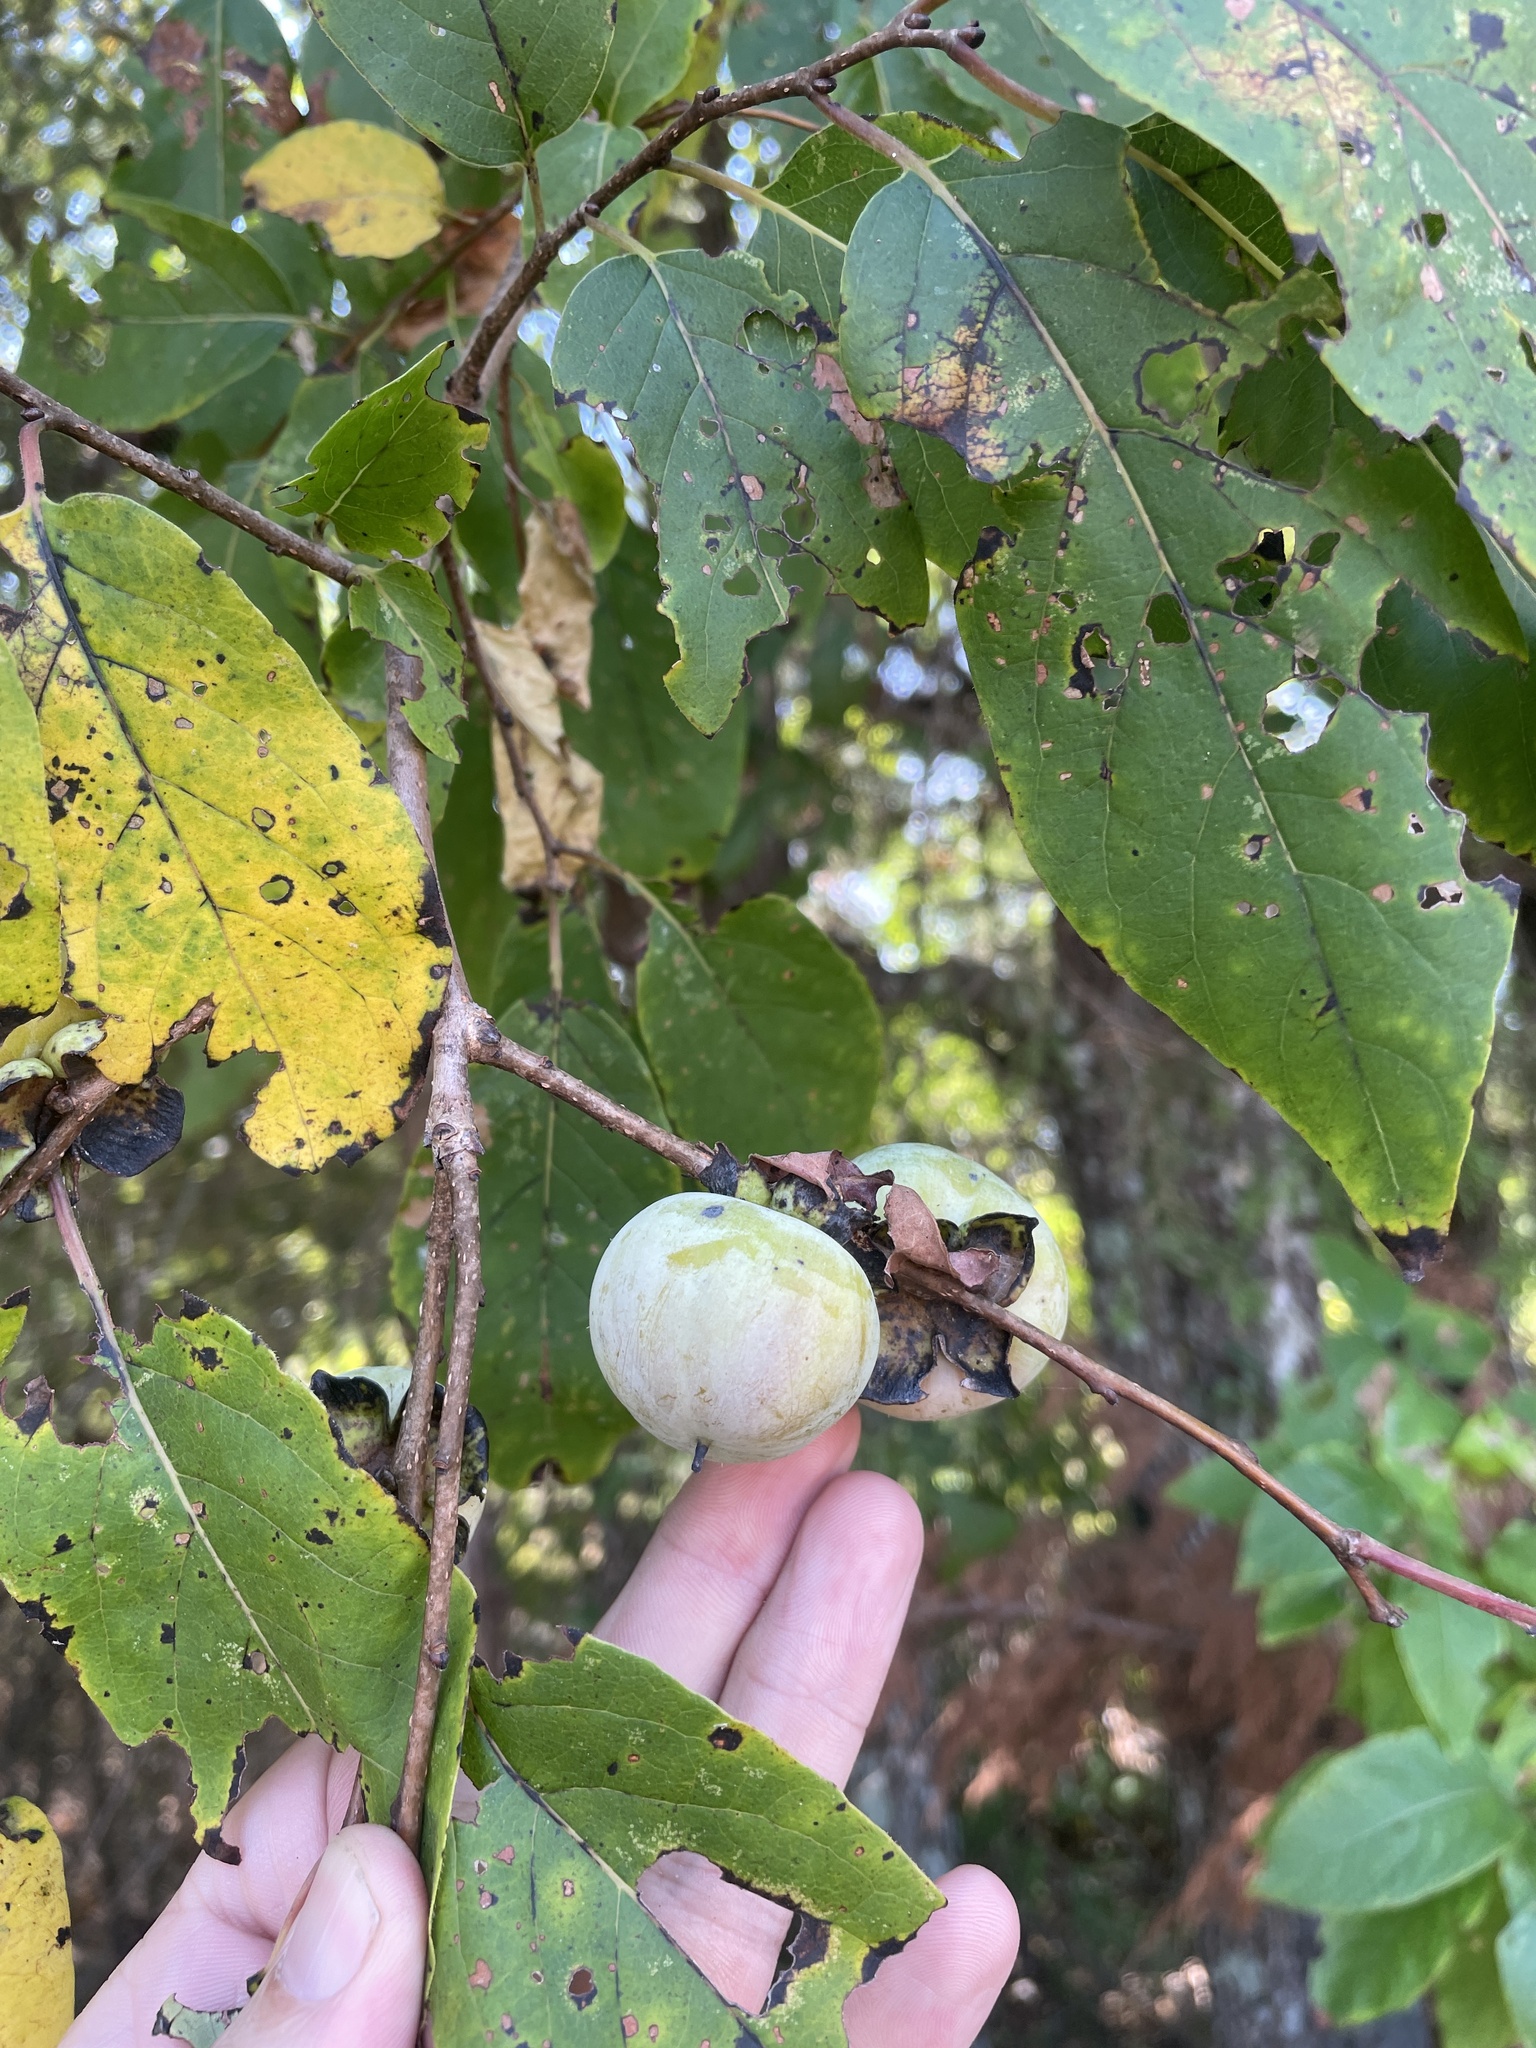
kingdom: Plantae
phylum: Tracheophyta
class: Magnoliopsida
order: Ericales
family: Ebenaceae
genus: Diospyros
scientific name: Diospyros virginiana
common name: Persimmon
